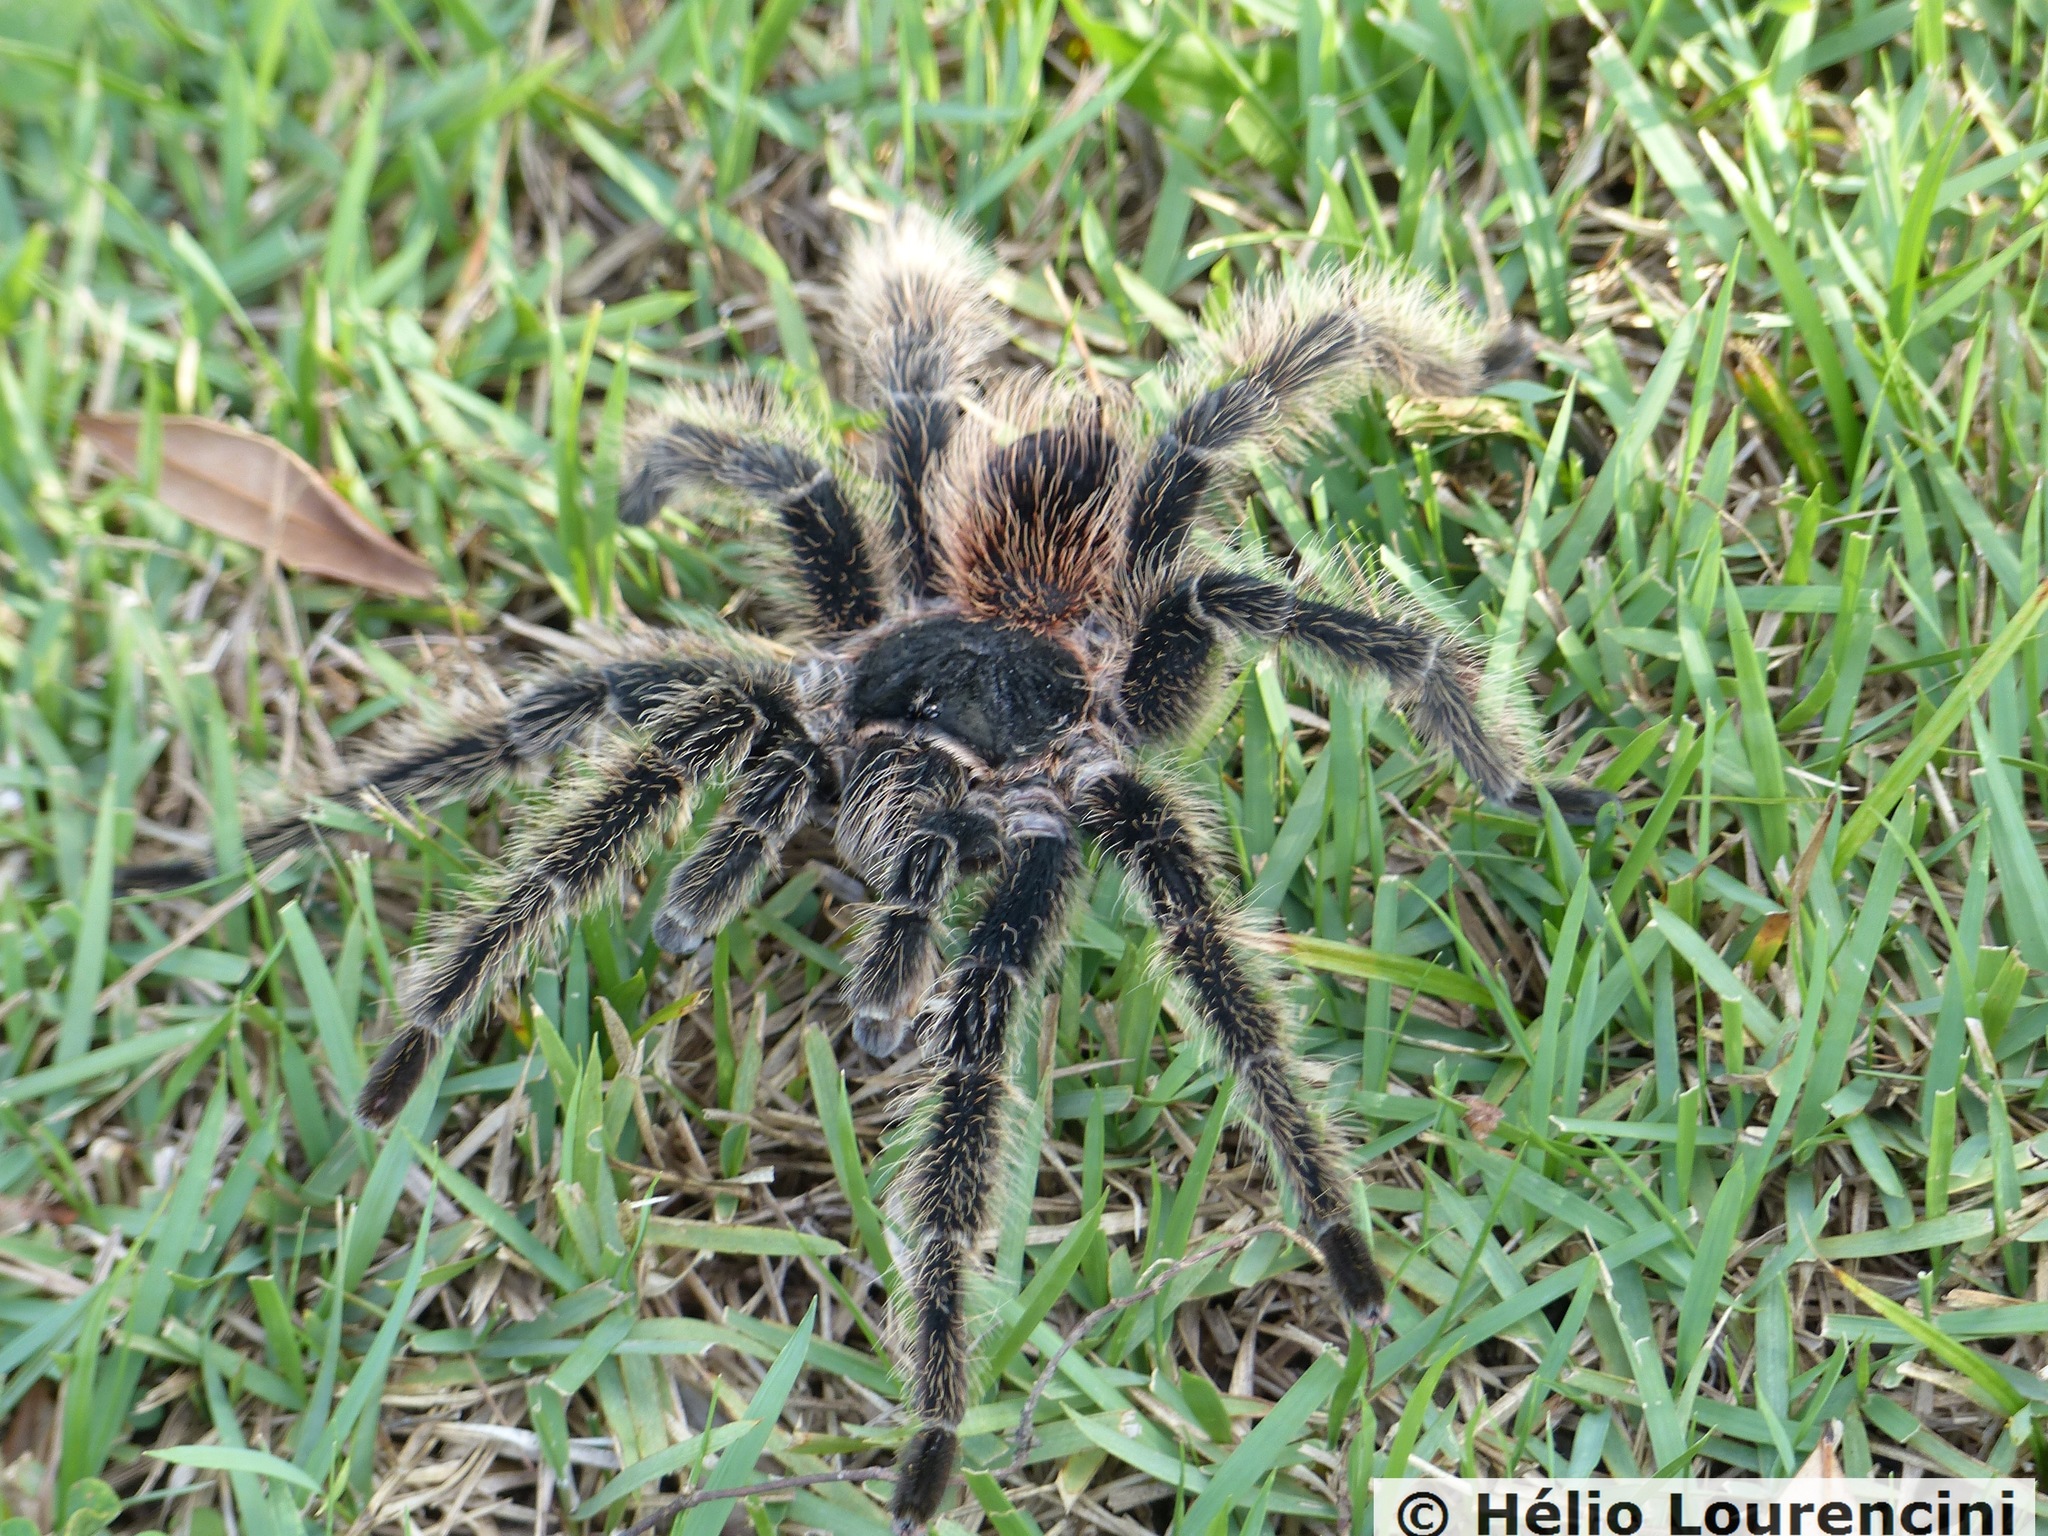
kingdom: Animalia
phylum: Arthropoda
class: Arachnida
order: Araneae
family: Theraphosidae
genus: Lasiodora
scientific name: Lasiodora parahybana
